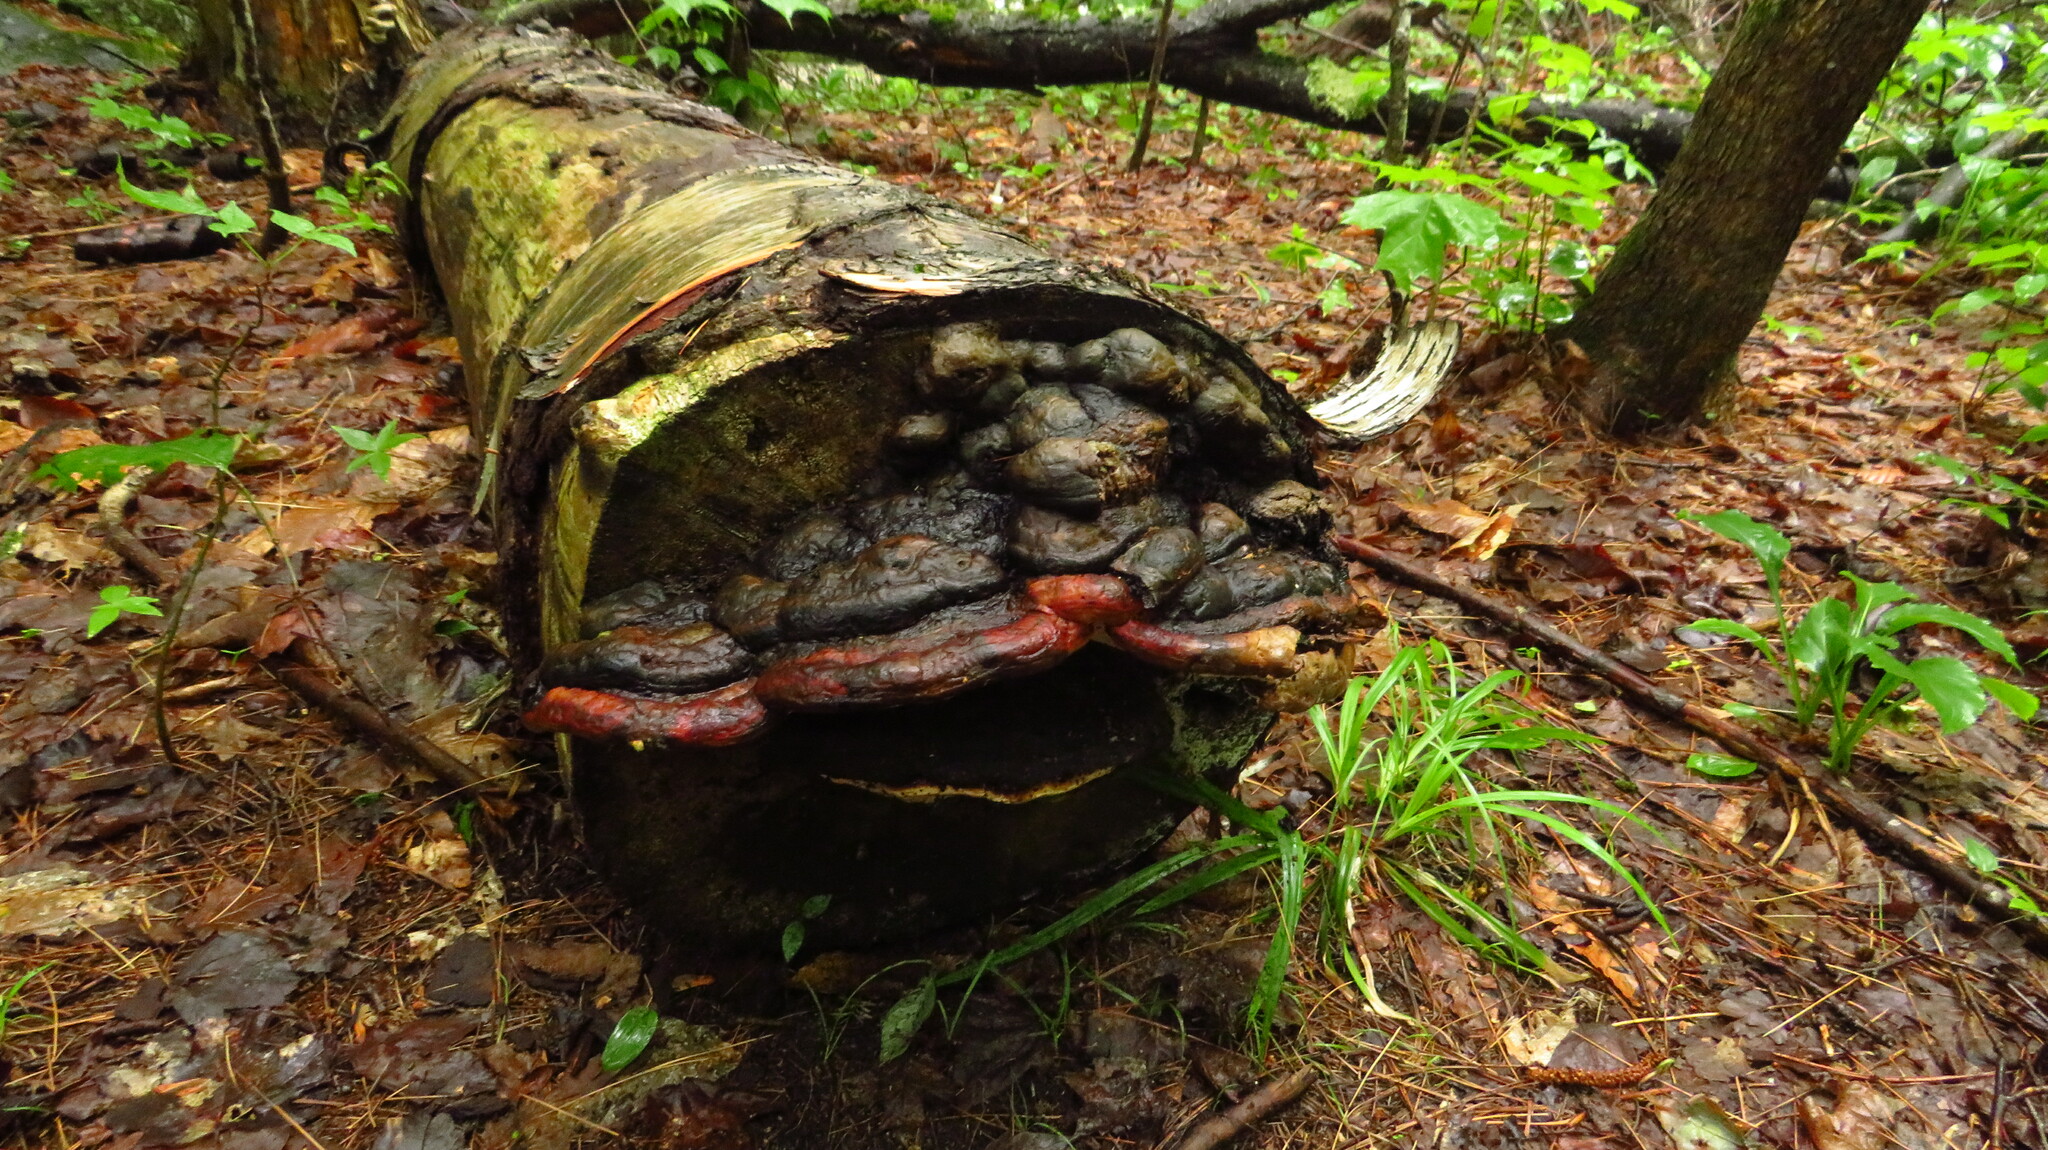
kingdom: Fungi
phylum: Basidiomycota
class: Agaricomycetes
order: Polyporales
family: Fomitopsidaceae
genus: Fomitopsis
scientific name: Fomitopsis mounceae
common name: Northern red belt
